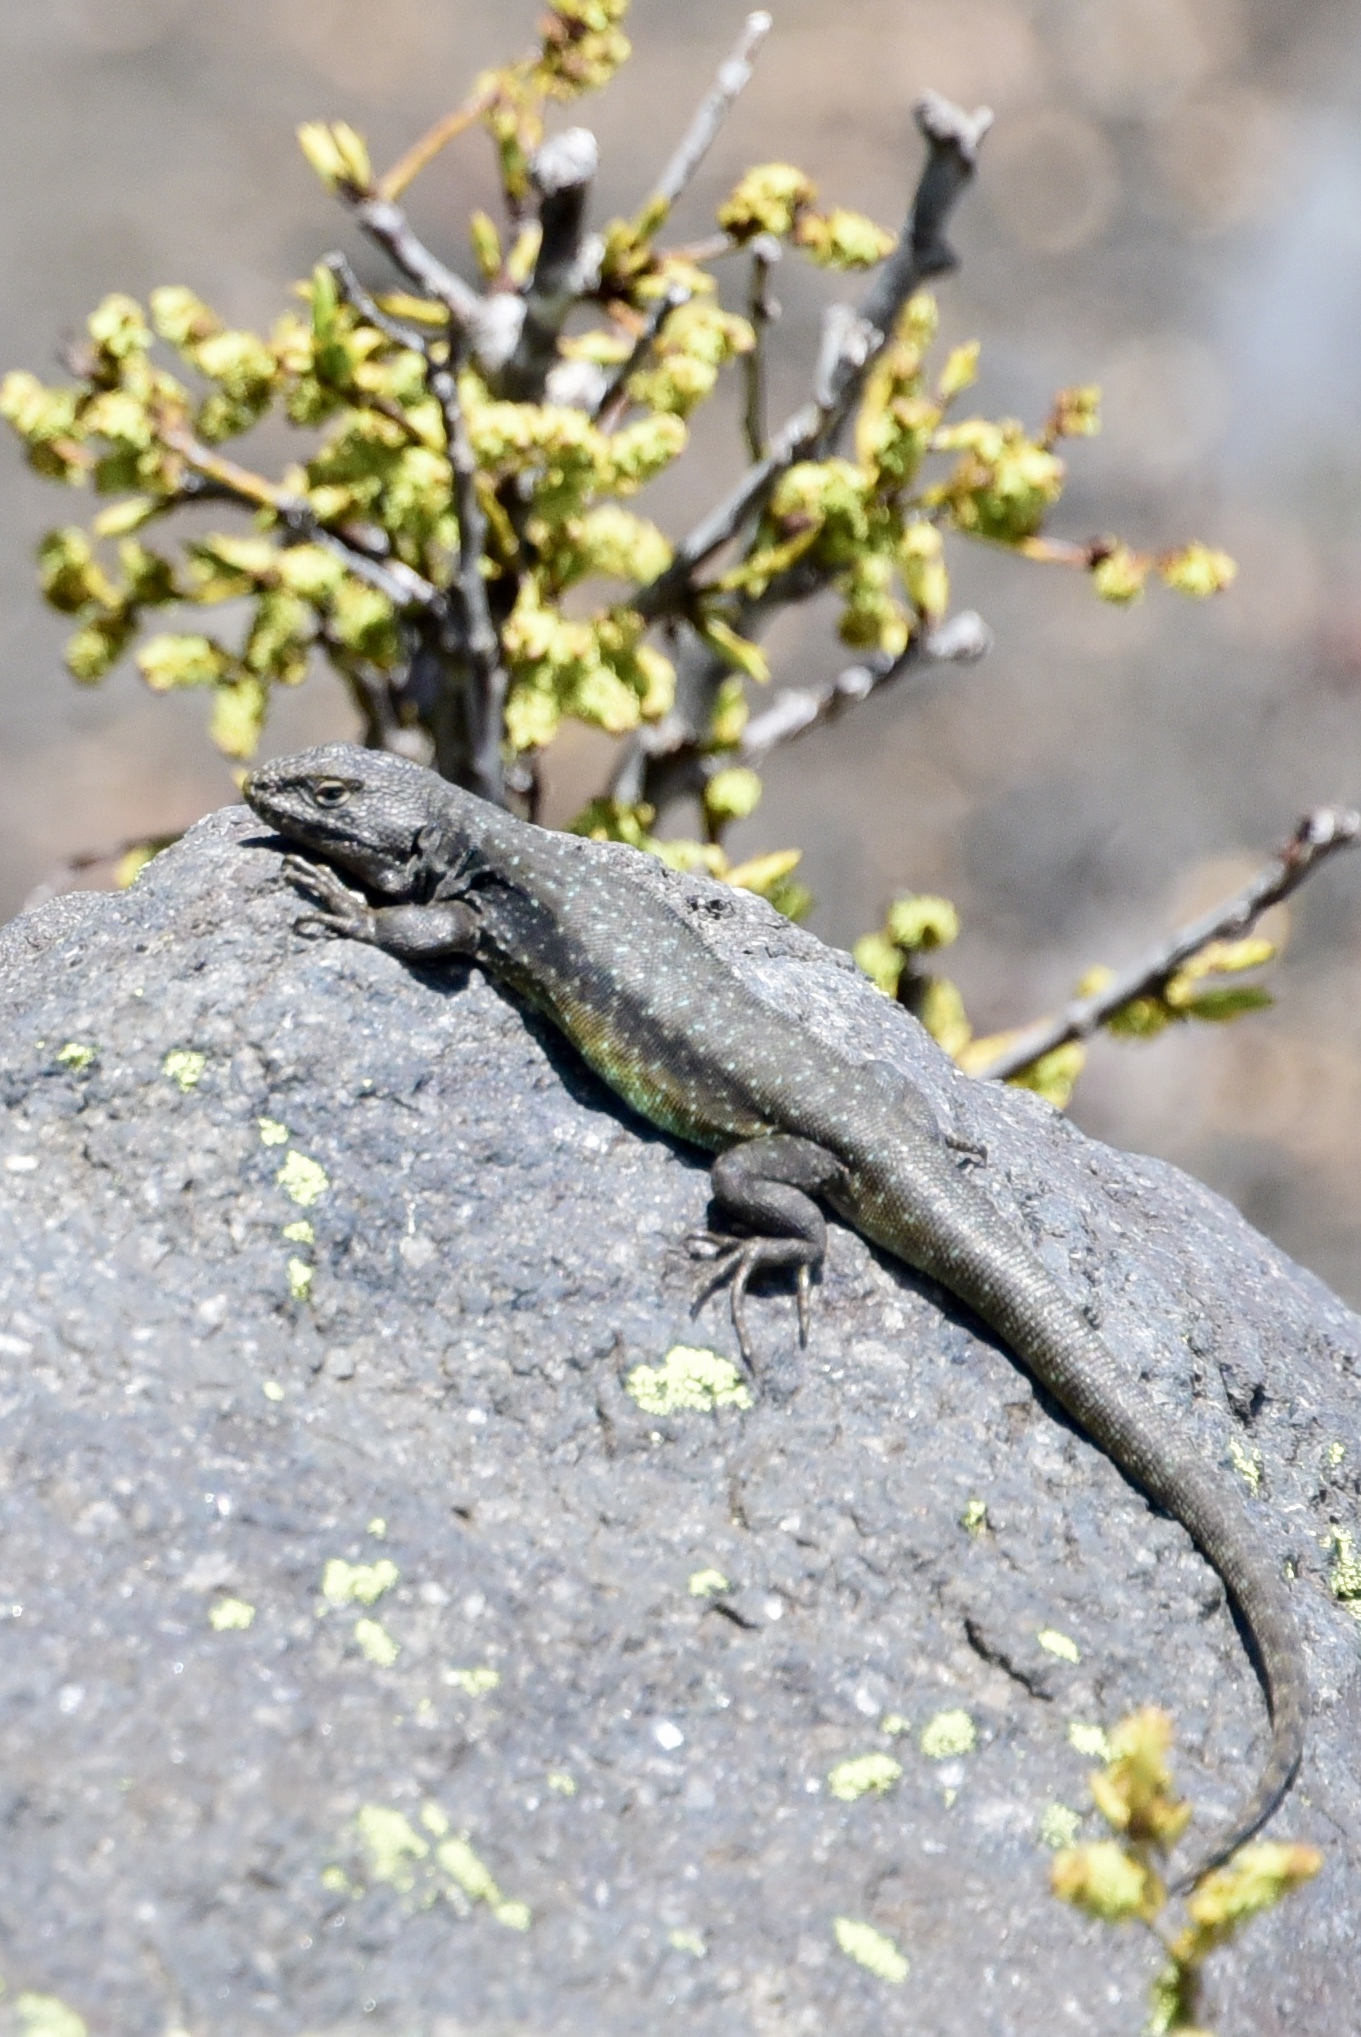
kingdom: Animalia
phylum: Chordata
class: Squamata
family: Liolaemidae
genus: Liolaemus
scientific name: Liolaemus villaricensis
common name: Villarica tree iguana
